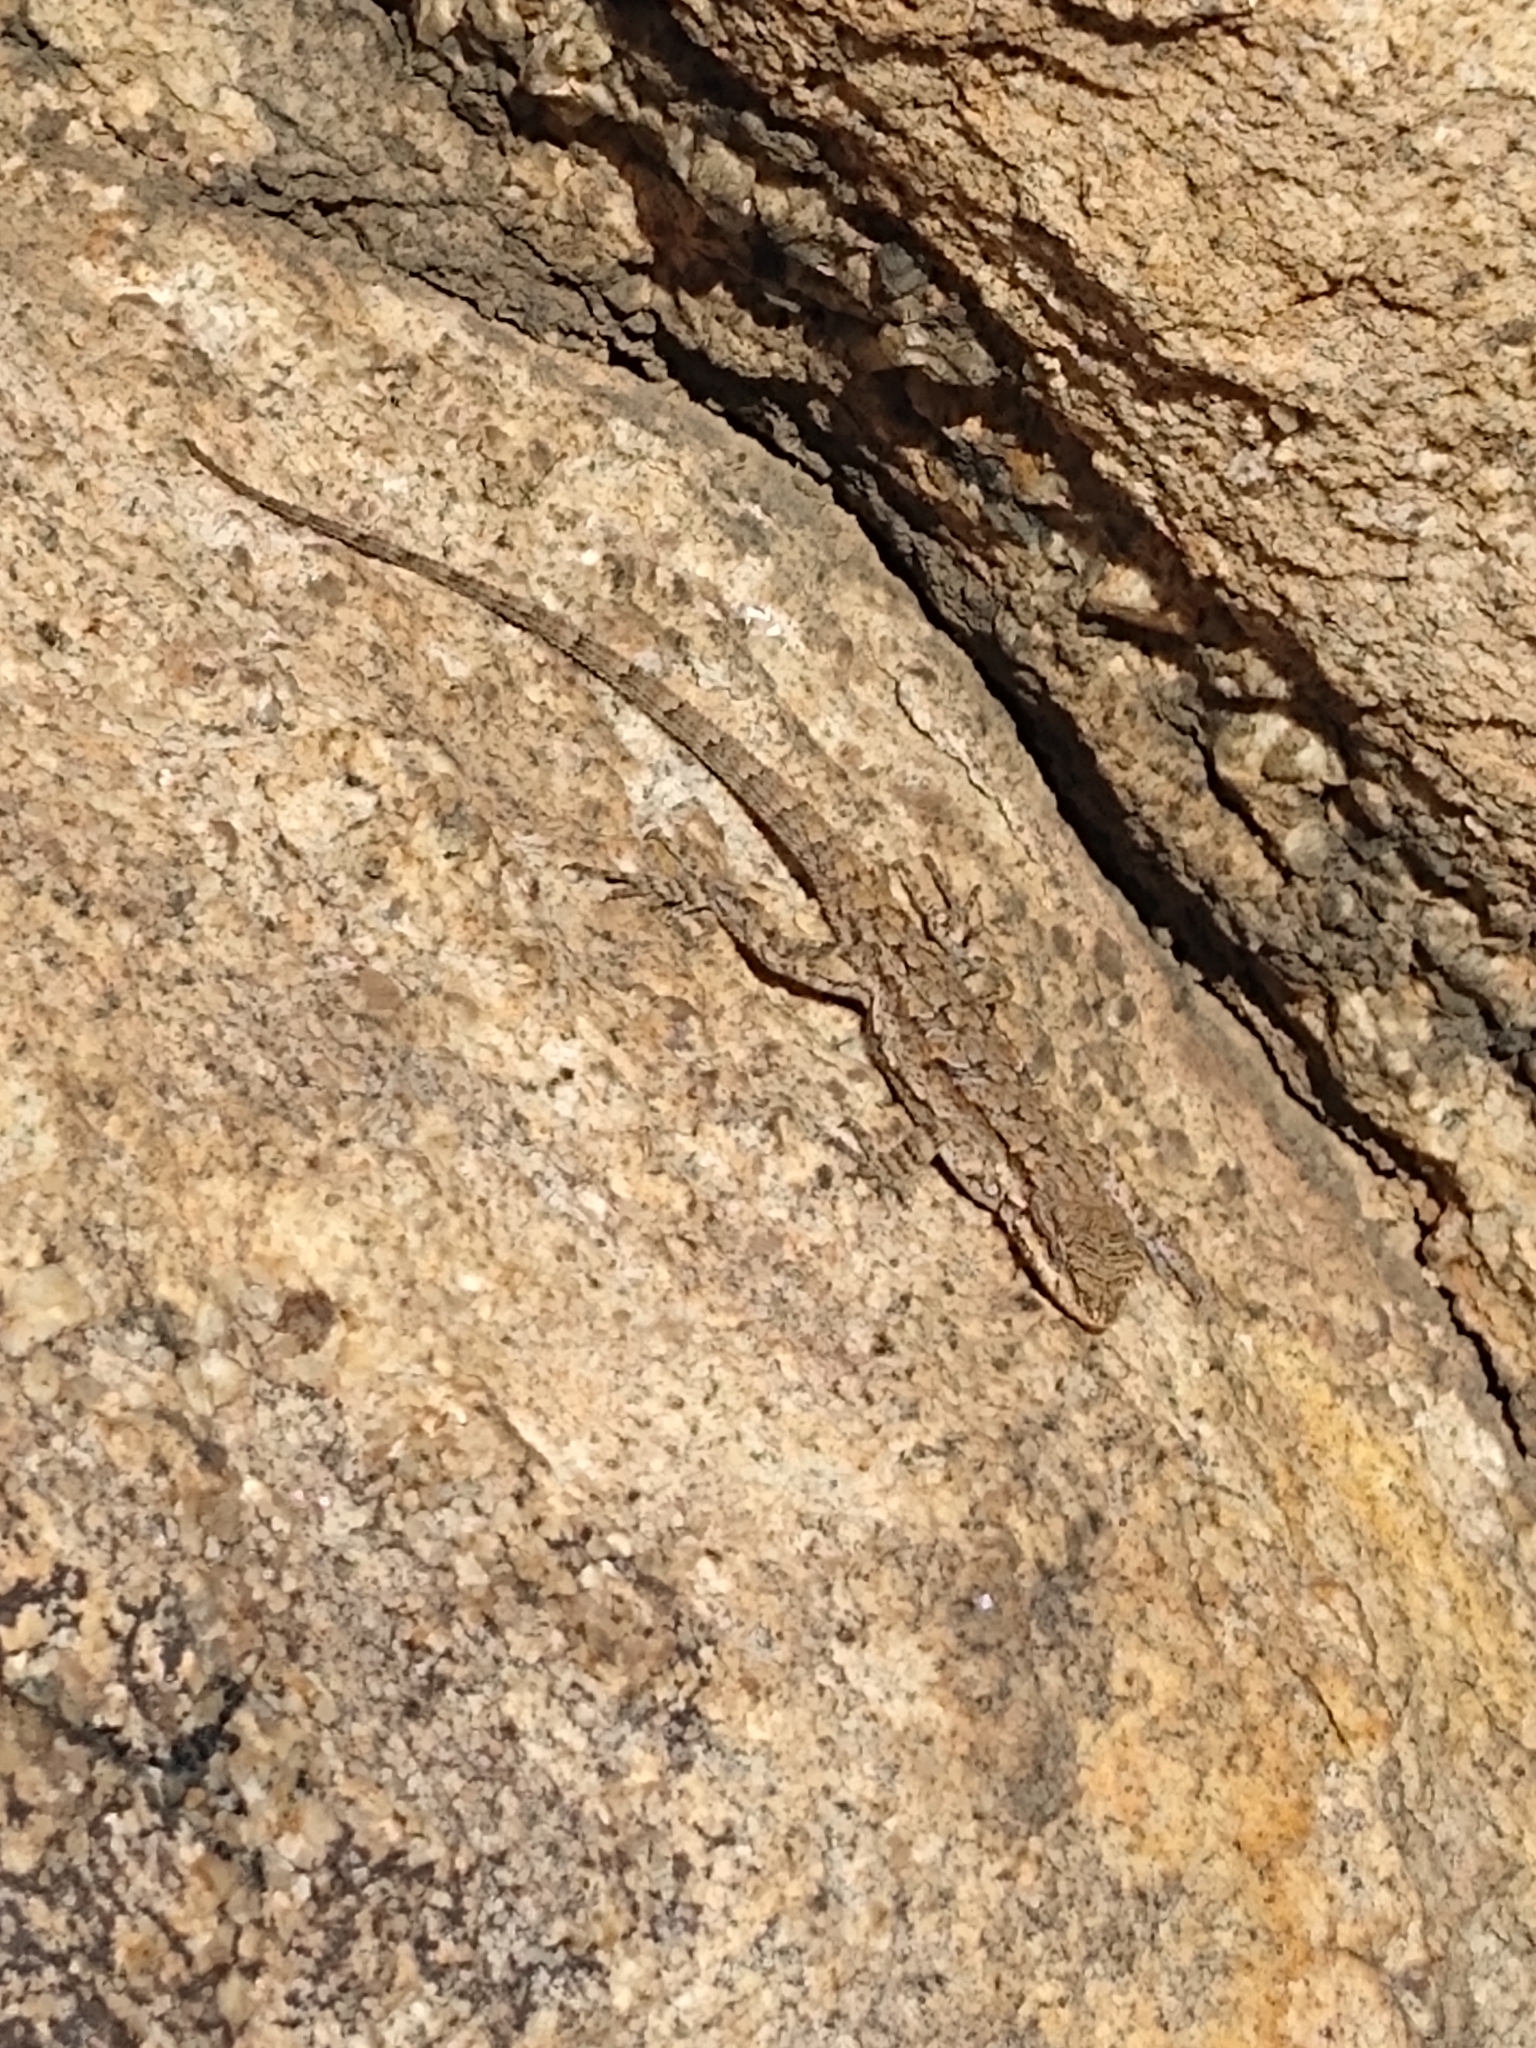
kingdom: Animalia
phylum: Chordata
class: Squamata
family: Phrynosomatidae
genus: Urosaurus
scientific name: Urosaurus ornatus
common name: Ornate tree lizard
